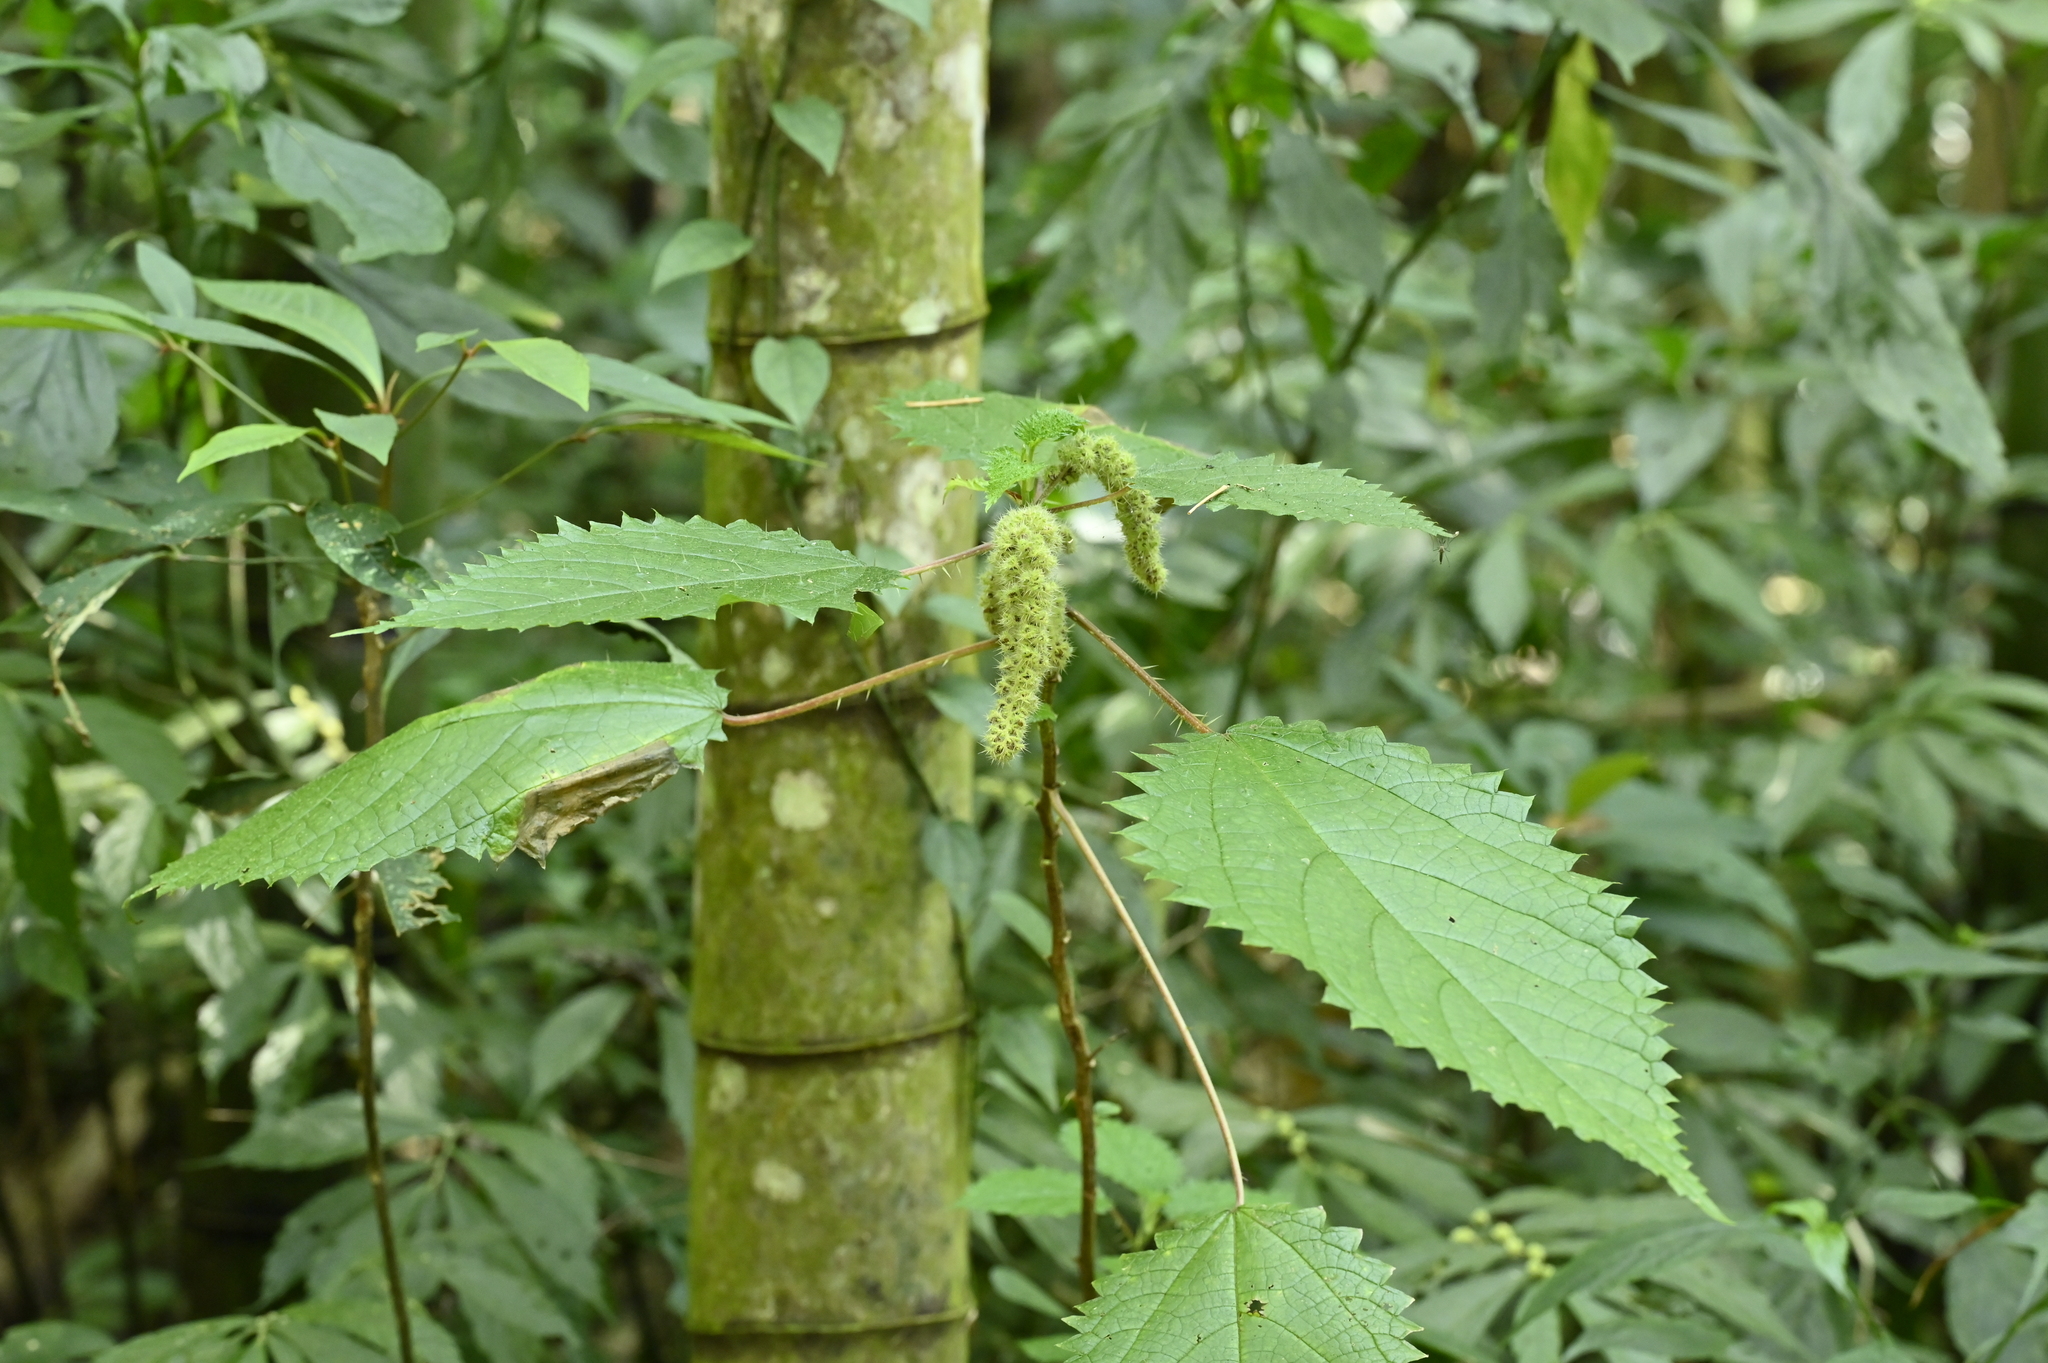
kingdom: Plantae
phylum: Tracheophyta
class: Magnoliopsida
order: Rosales
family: Urticaceae
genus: Girardinia
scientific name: Girardinia diversifolia
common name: Himalayan-nettle
